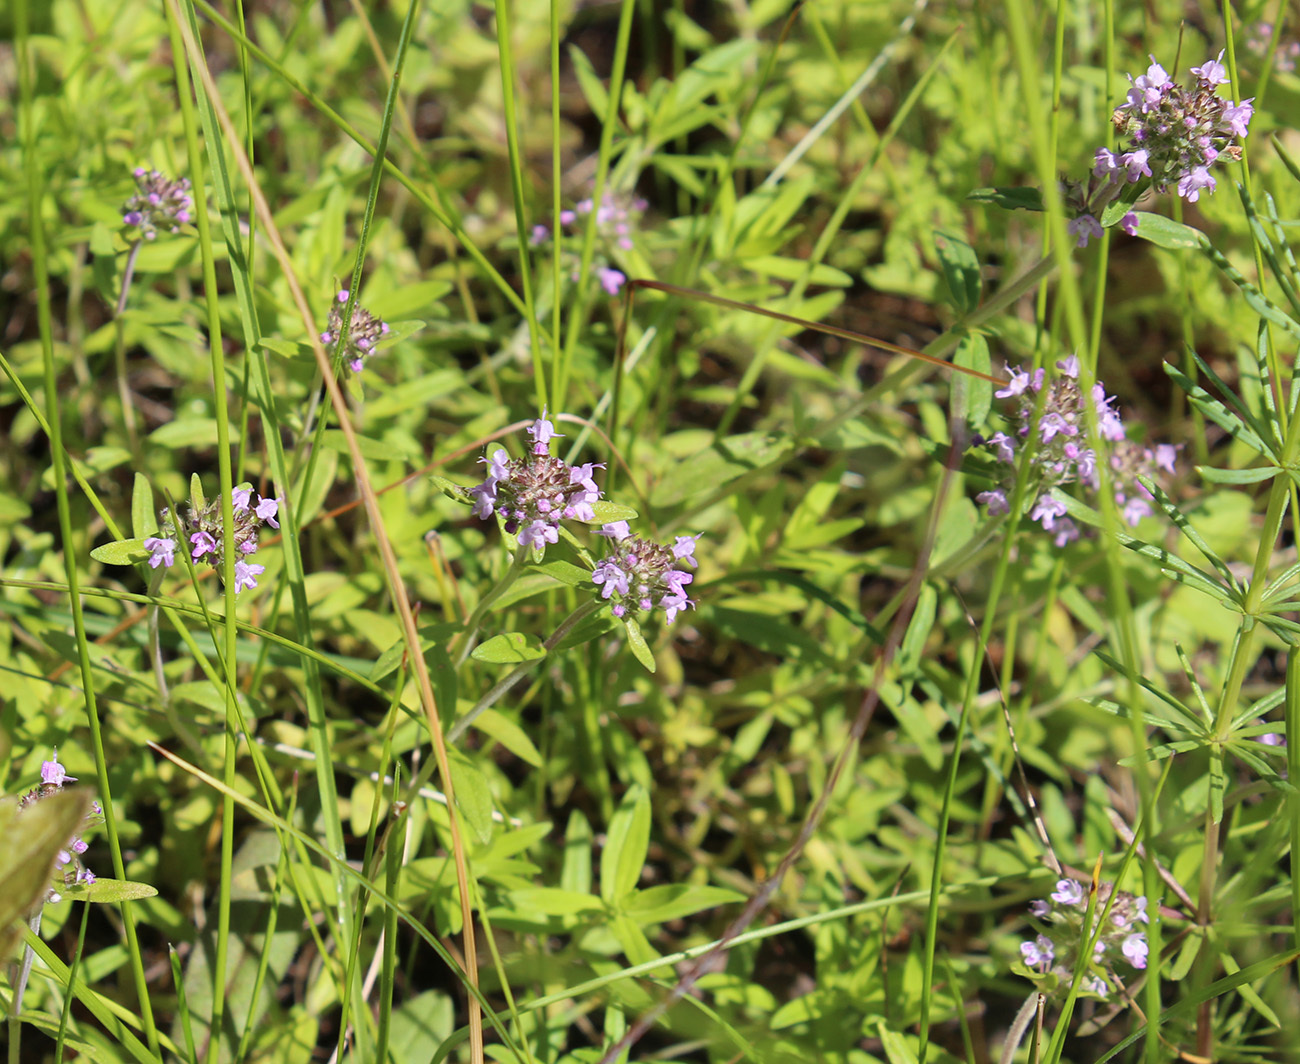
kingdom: Plantae
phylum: Tracheophyta
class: Magnoliopsida
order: Lamiales
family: Lamiaceae
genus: Thymus
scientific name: Thymus pannonicus
